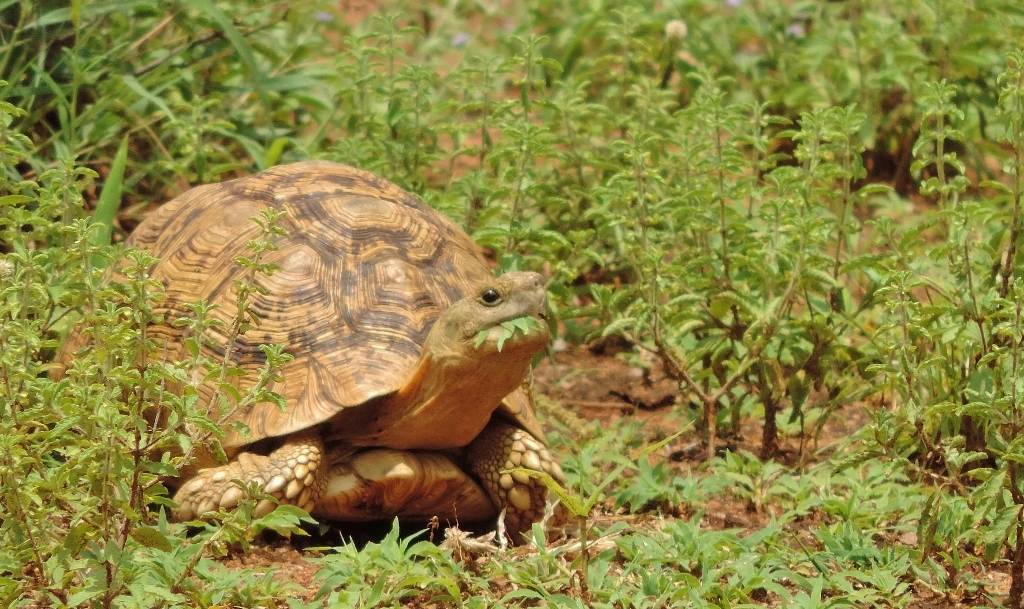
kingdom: Animalia
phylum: Chordata
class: Testudines
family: Testudinidae
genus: Stigmochelys
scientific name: Stigmochelys pardalis
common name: Leopard tortoise
